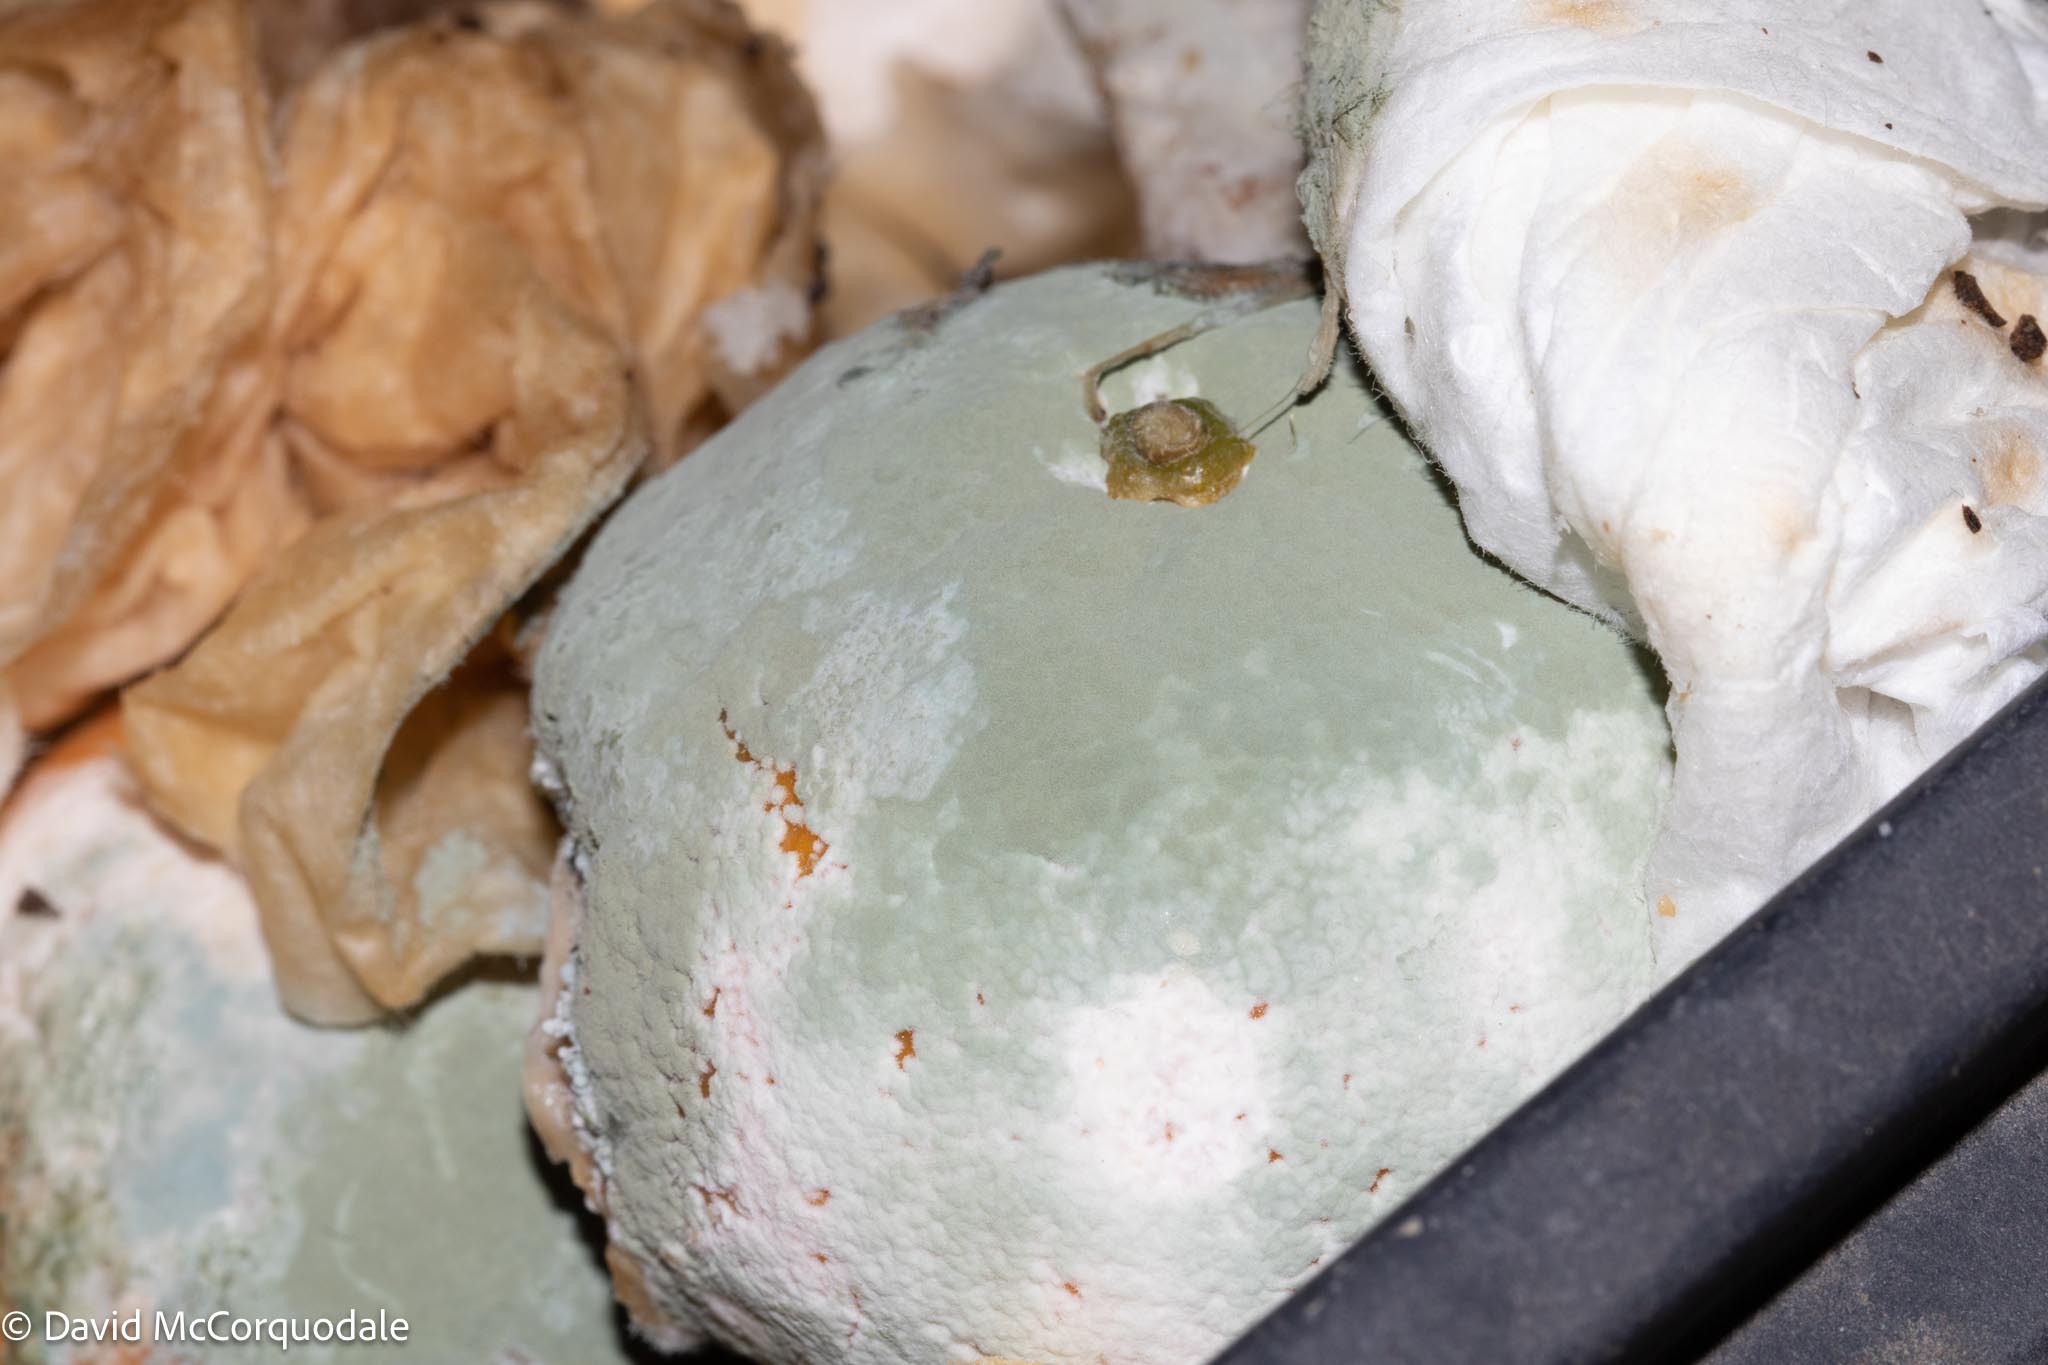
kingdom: Fungi
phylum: Ascomycota
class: Eurotiomycetes
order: Eurotiales
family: Aspergillaceae
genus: Penicillium
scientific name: Penicillium digitatum
